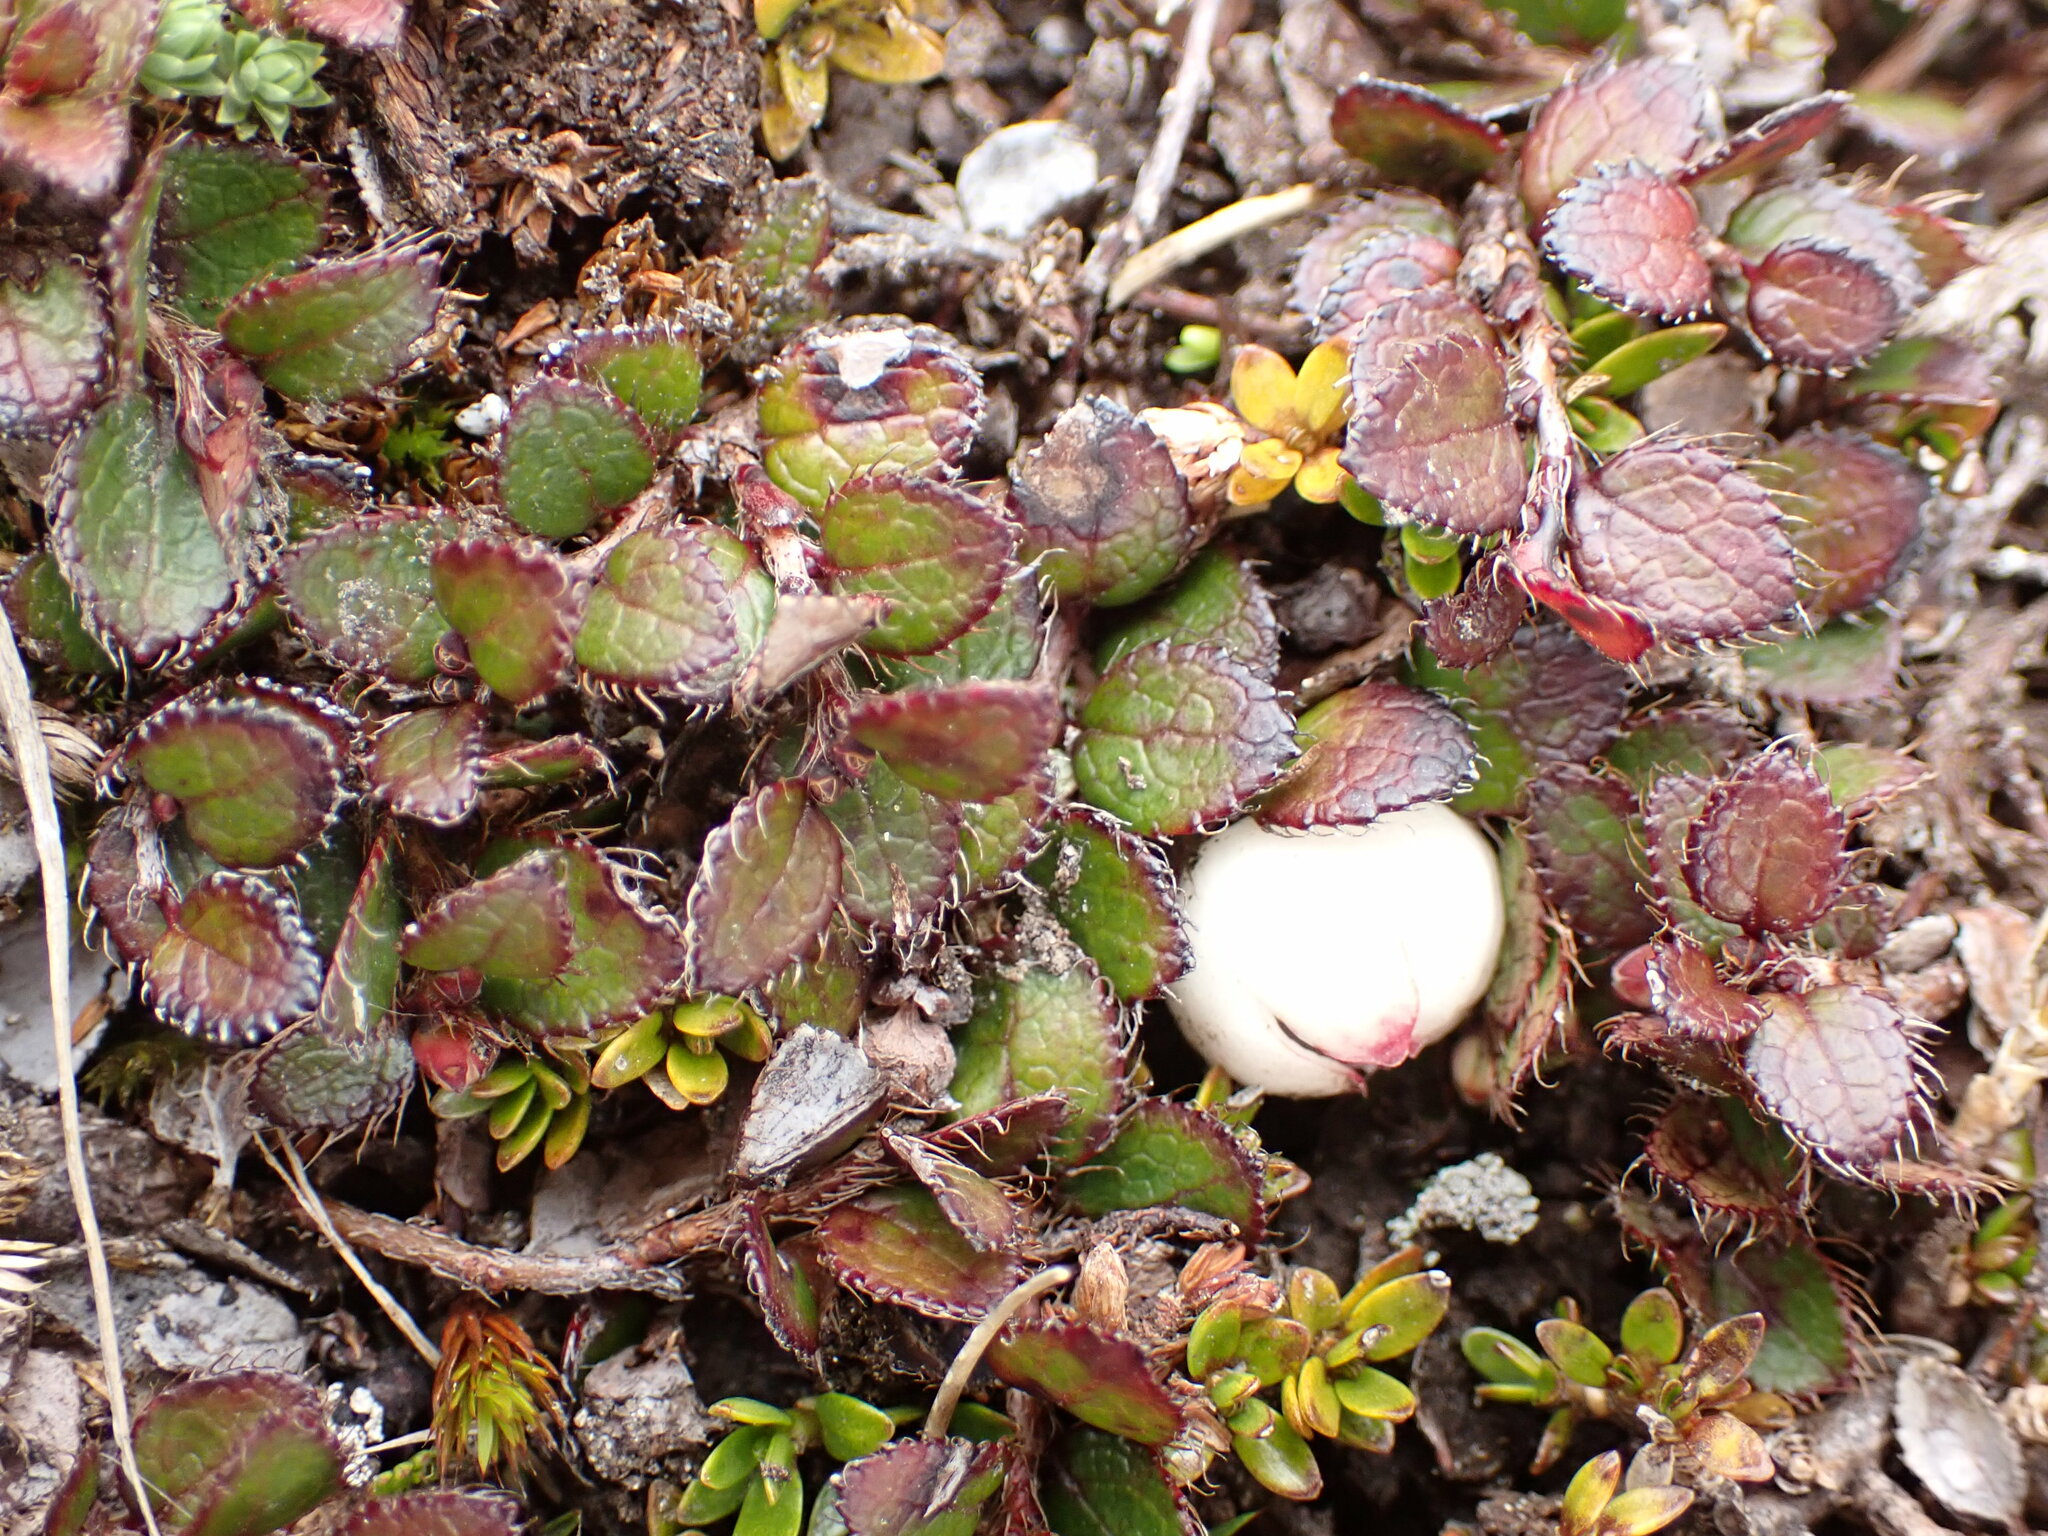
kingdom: Plantae
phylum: Tracheophyta
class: Magnoliopsida
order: Ericales
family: Ericaceae
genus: Gaultheria
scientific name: Gaultheria depressa
